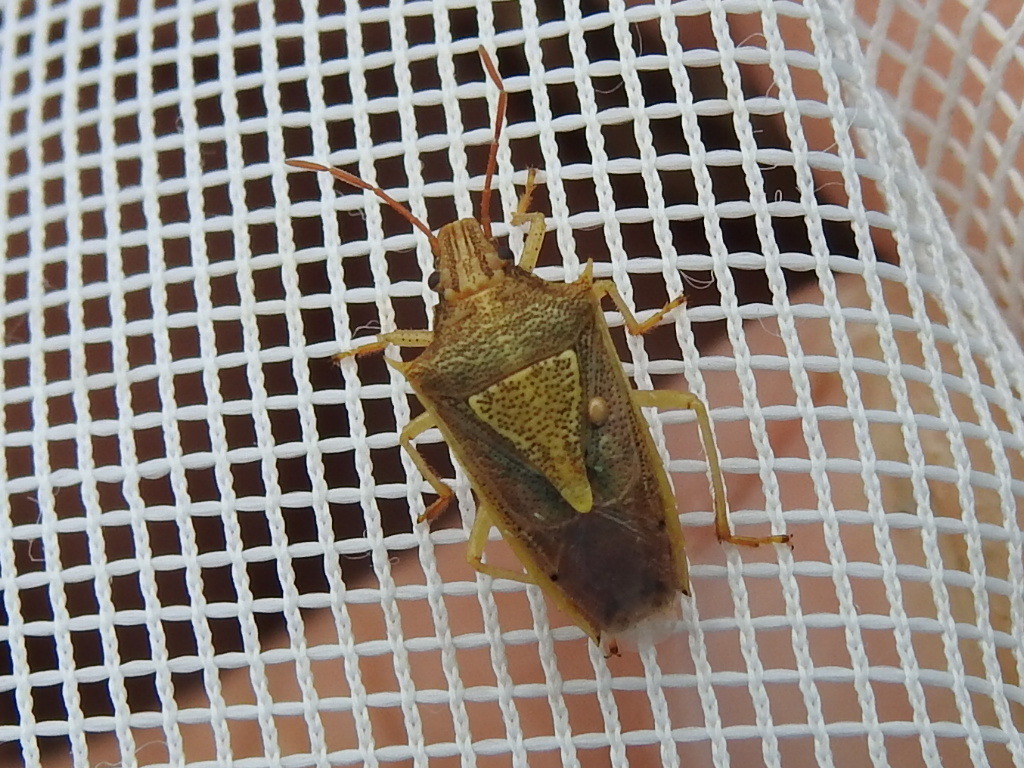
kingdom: Animalia
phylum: Arthropoda
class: Insecta
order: Hemiptera
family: Pentatomidae
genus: Oebalus
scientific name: Oebalus pugnax
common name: Rice stink bug
